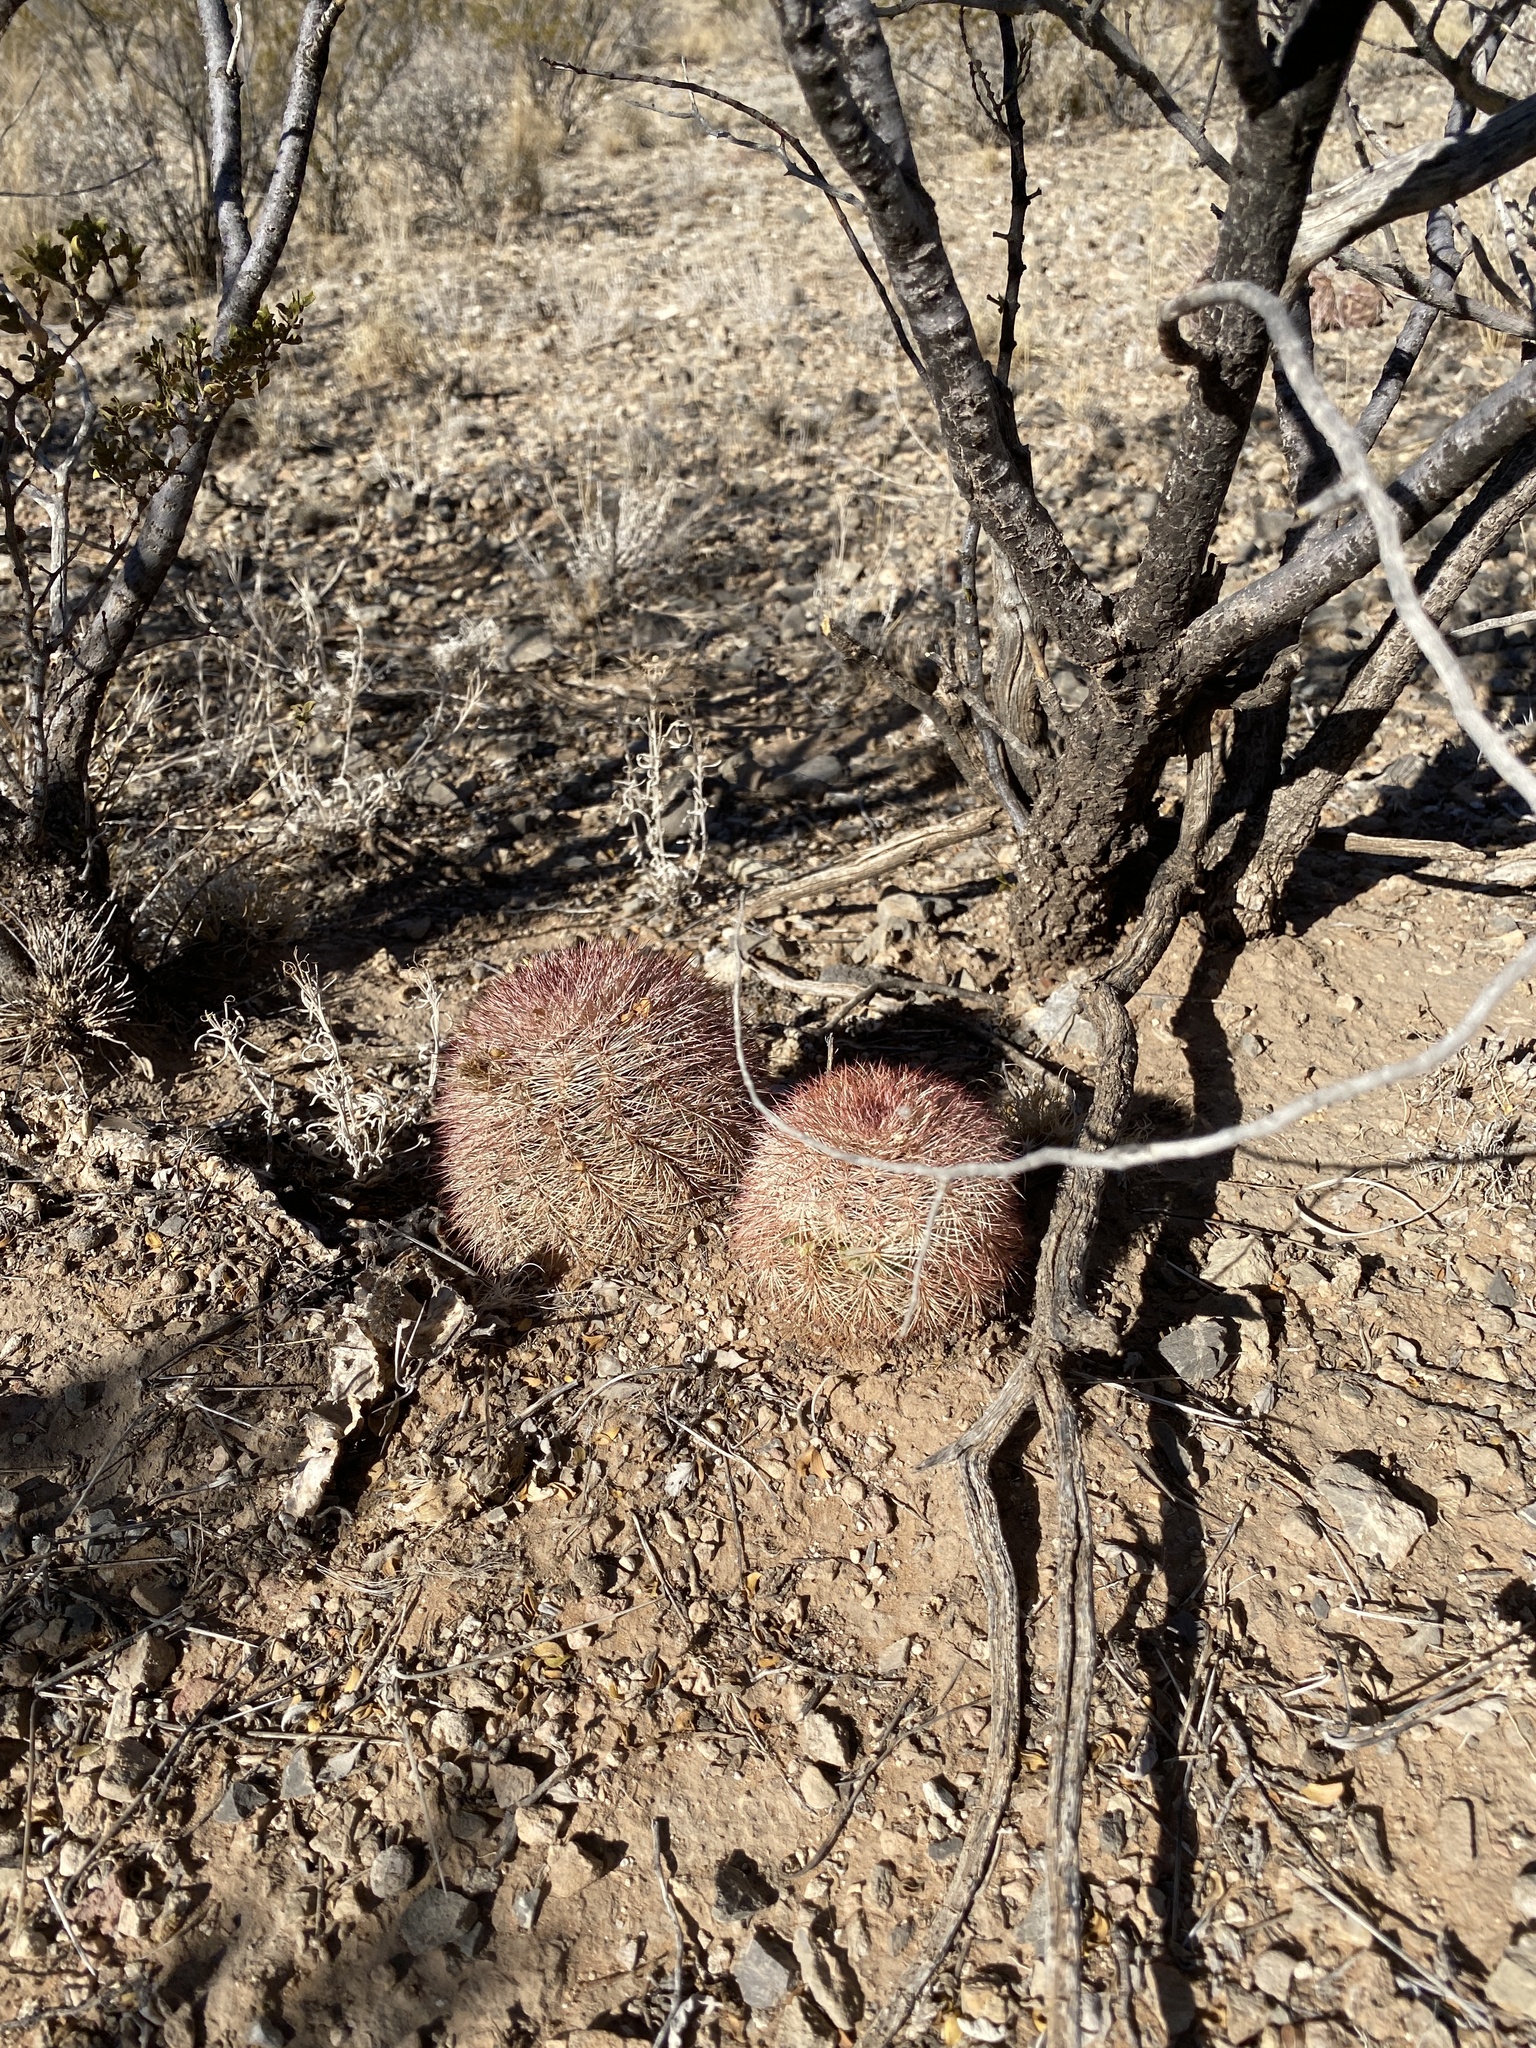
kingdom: Plantae
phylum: Tracheophyta
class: Magnoliopsida
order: Caryophyllales
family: Cactaceae
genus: Echinocereus
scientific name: Echinocereus dasyacanthus
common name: Spiny hedgehog cactus
